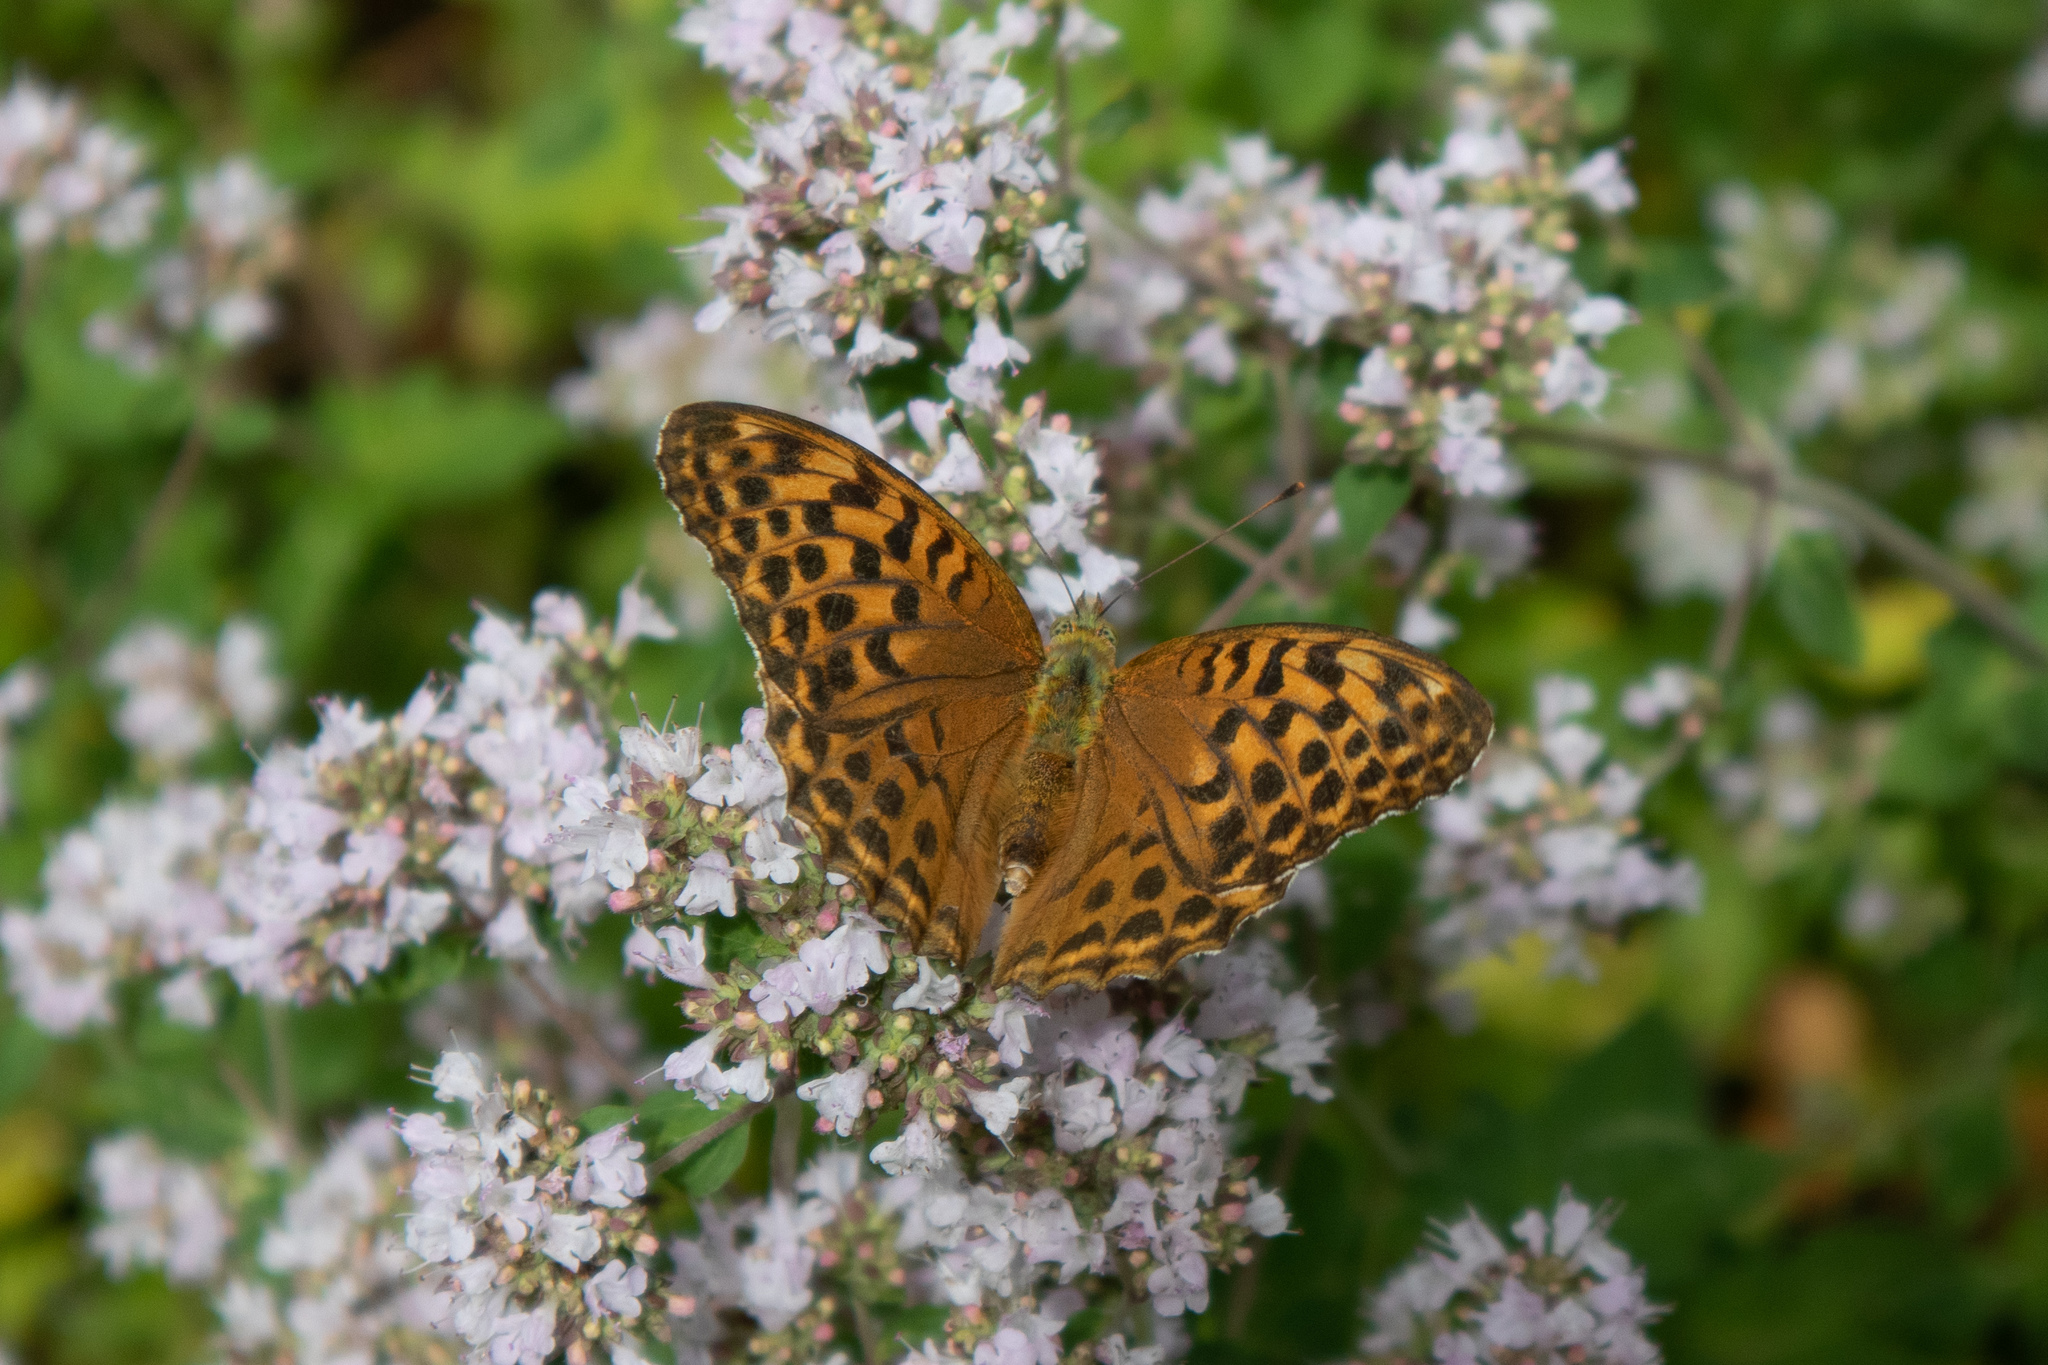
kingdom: Animalia
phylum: Arthropoda
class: Insecta
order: Lepidoptera
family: Nymphalidae
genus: Argynnis
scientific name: Argynnis paphia
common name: Silver-washed fritillary
